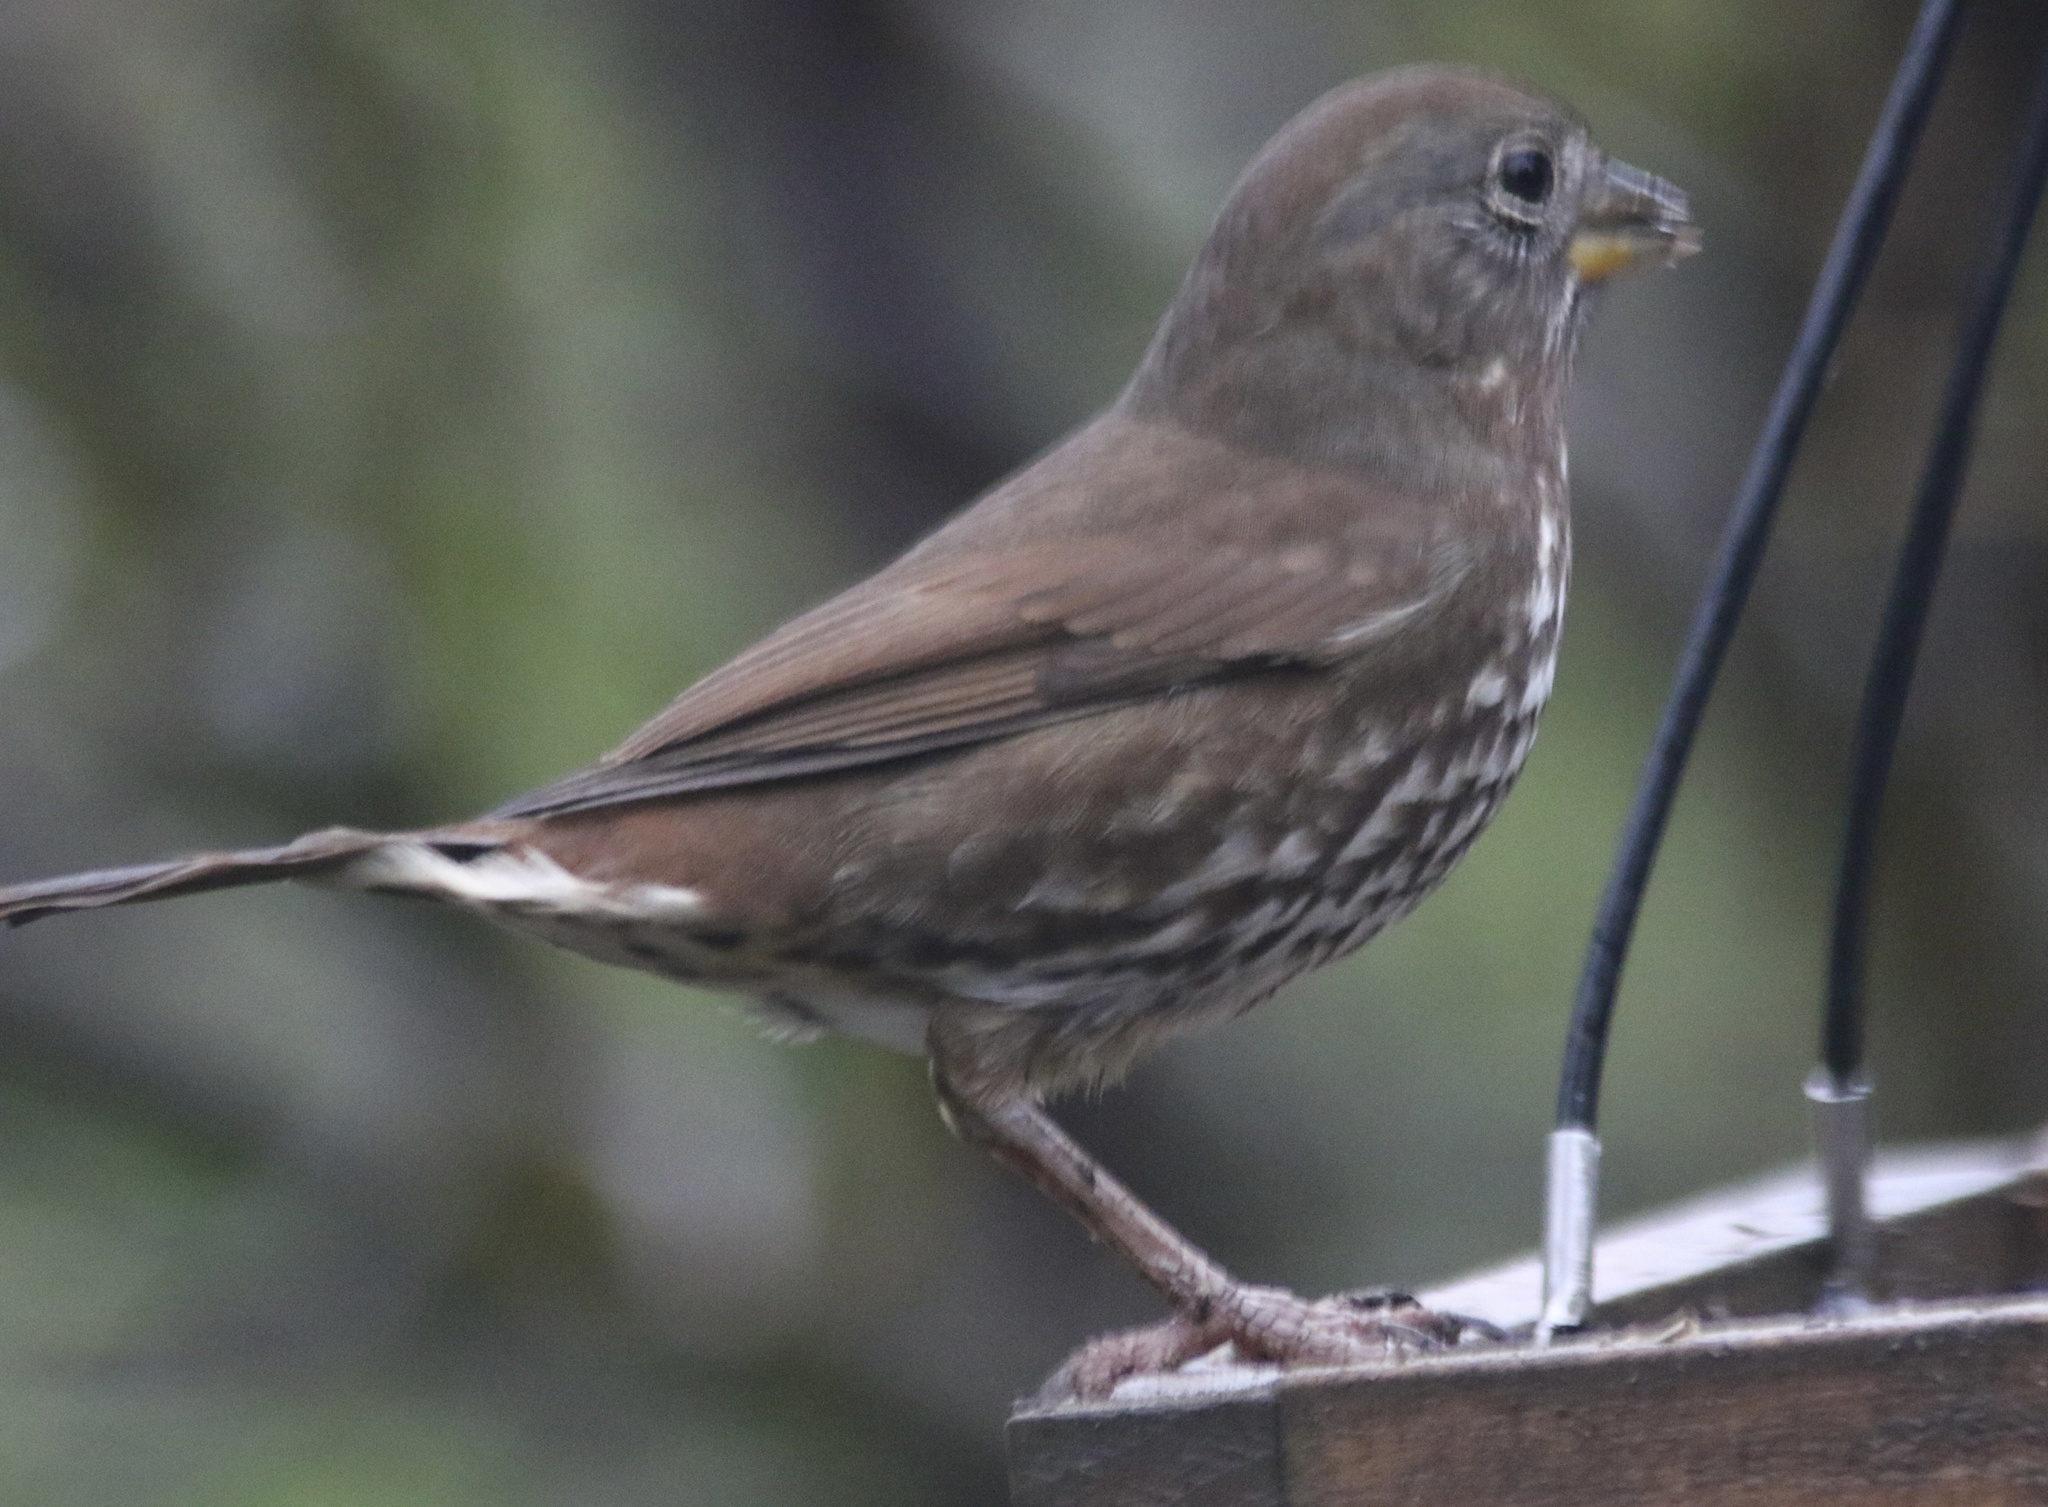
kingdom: Animalia
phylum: Chordata
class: Aves
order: Passeriformes
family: Passerellidae
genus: Passerella
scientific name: Passerella iliaca
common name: Fox sparrow
